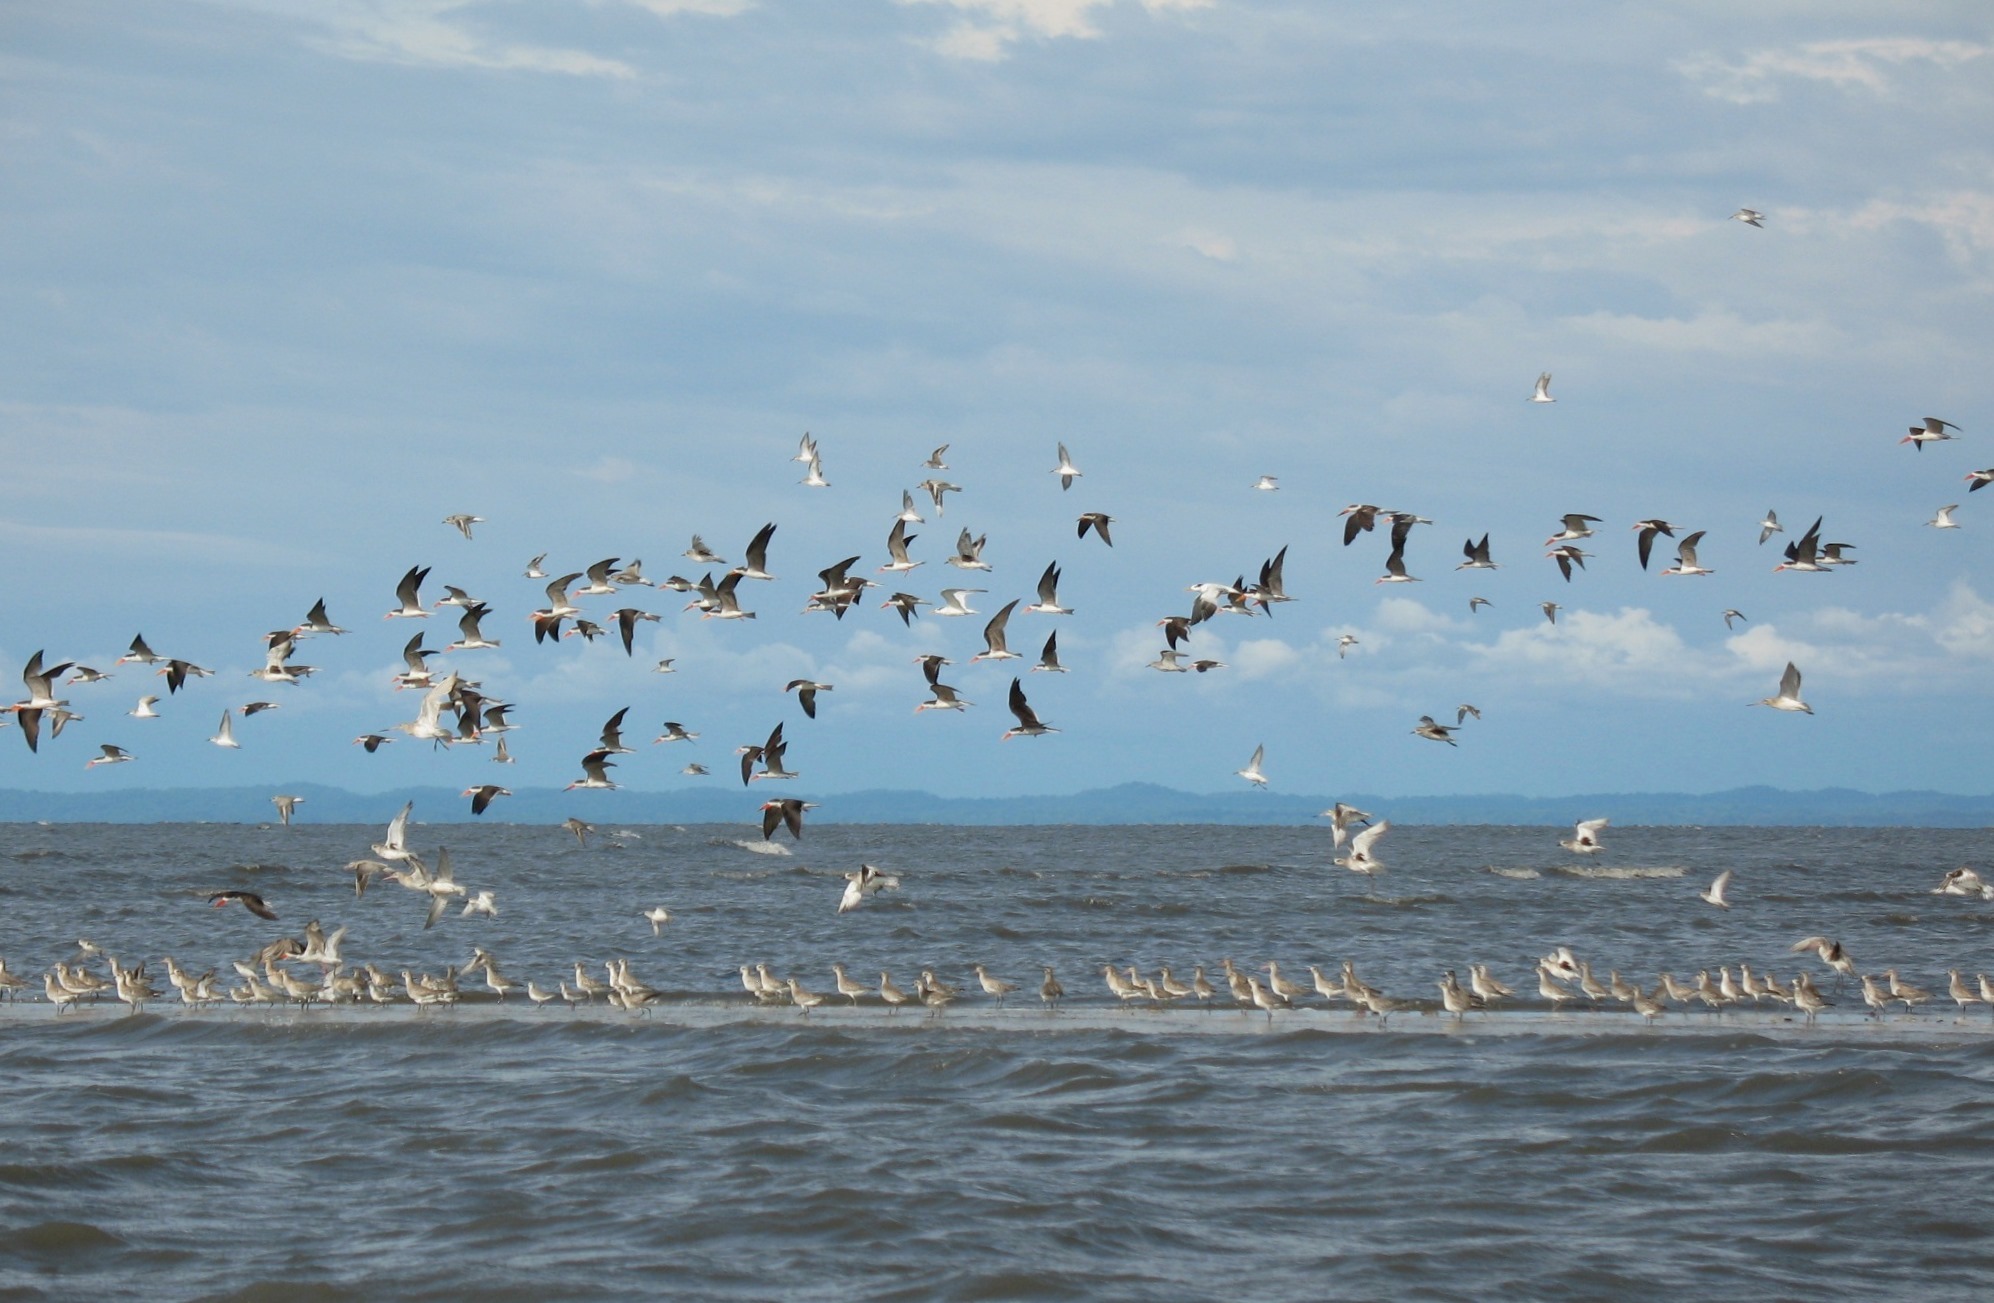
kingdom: Animalia
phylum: Chordata
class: Aves
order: Charadriiformes
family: Laridae
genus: Rynchops
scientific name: Rynchops flavirostris
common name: African skimmer
